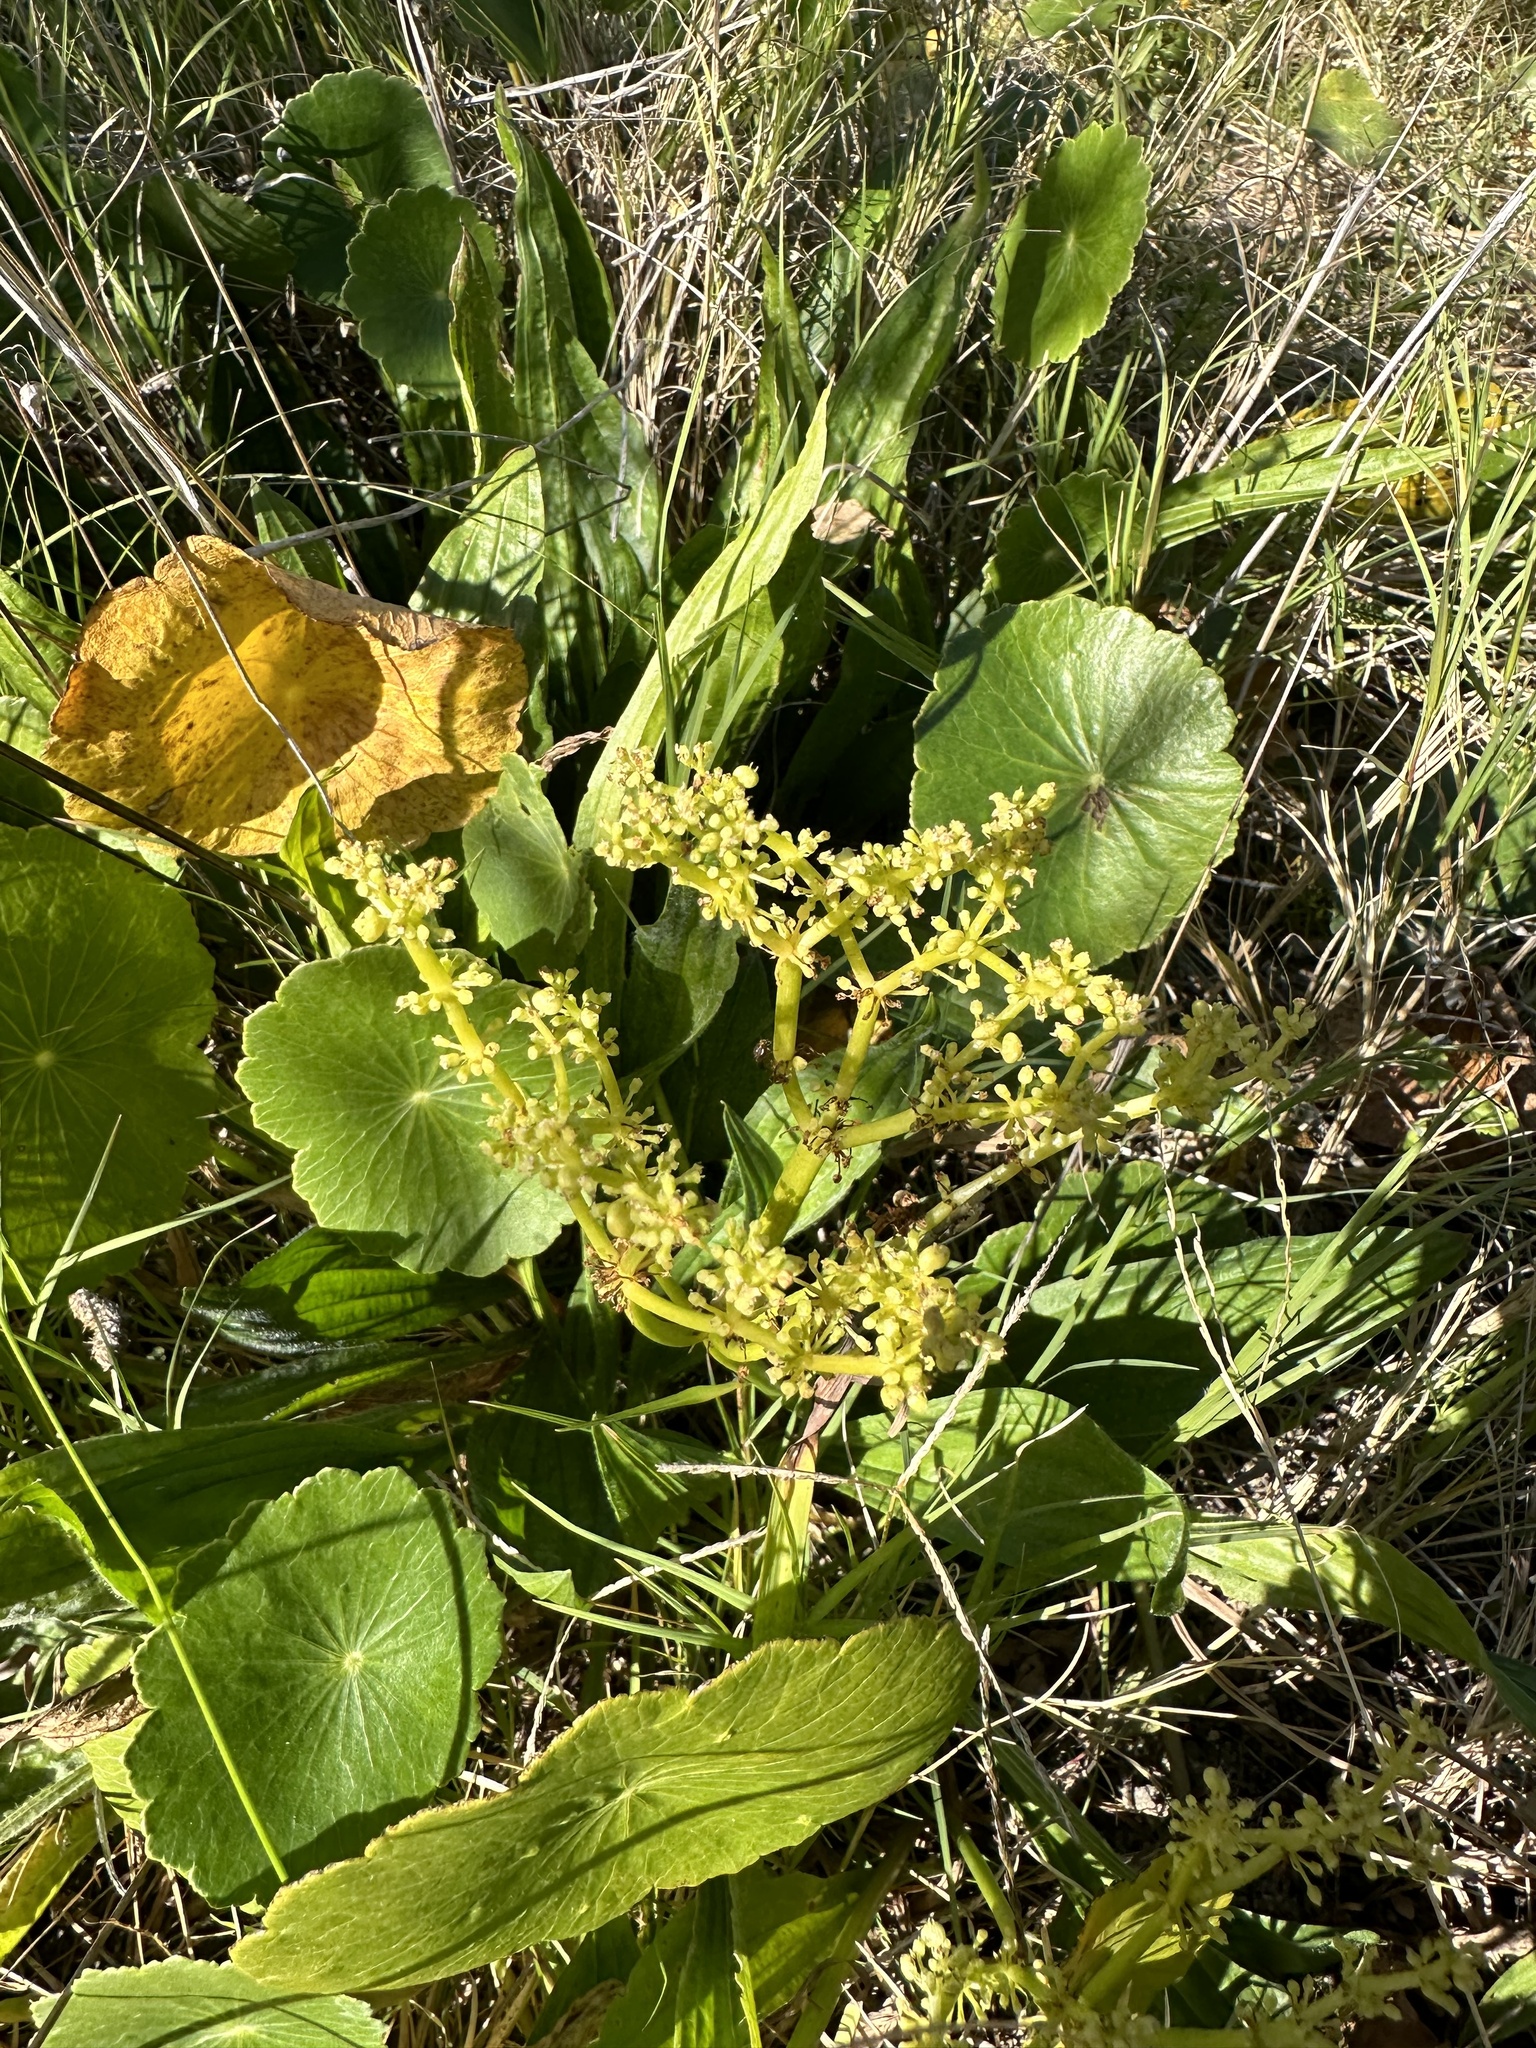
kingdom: Plantae
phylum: Tracheophyta
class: Magnoliopsida
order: Apiales
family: Araliaceae
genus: Hydrocotyle
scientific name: Hydrocotyle bonariensis
